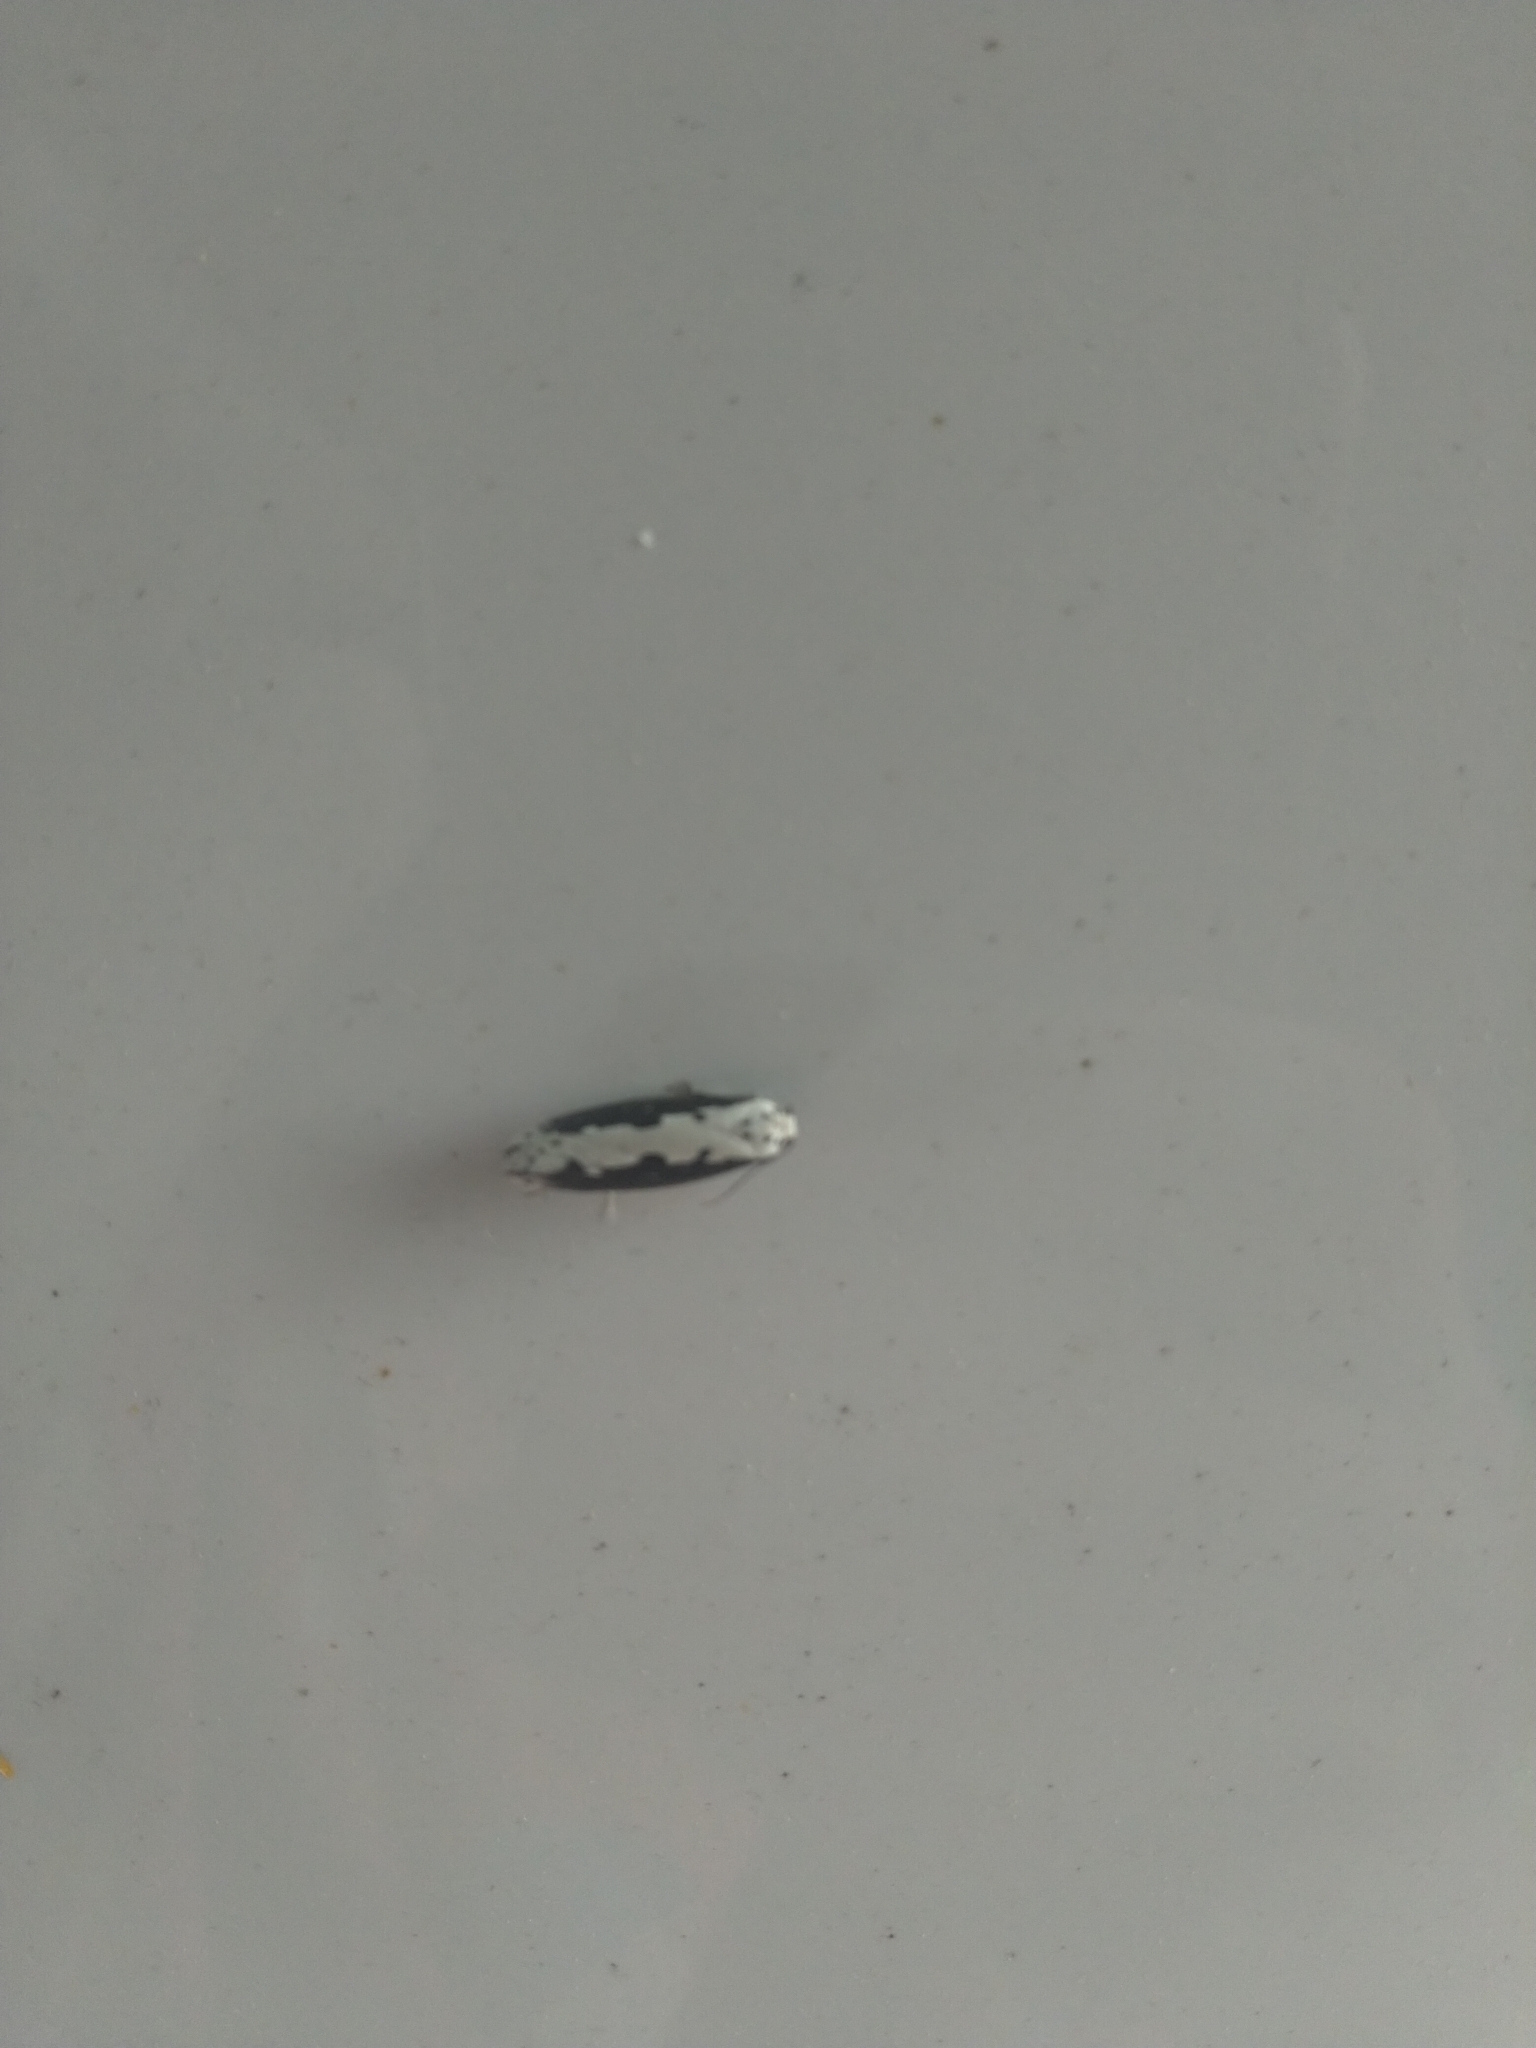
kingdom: Animalia
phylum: Arthropoda
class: Insecta
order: Lepidoptera
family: Ethmiidae
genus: Ethmia
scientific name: Ethmia bipunctella
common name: Bordered ermel
